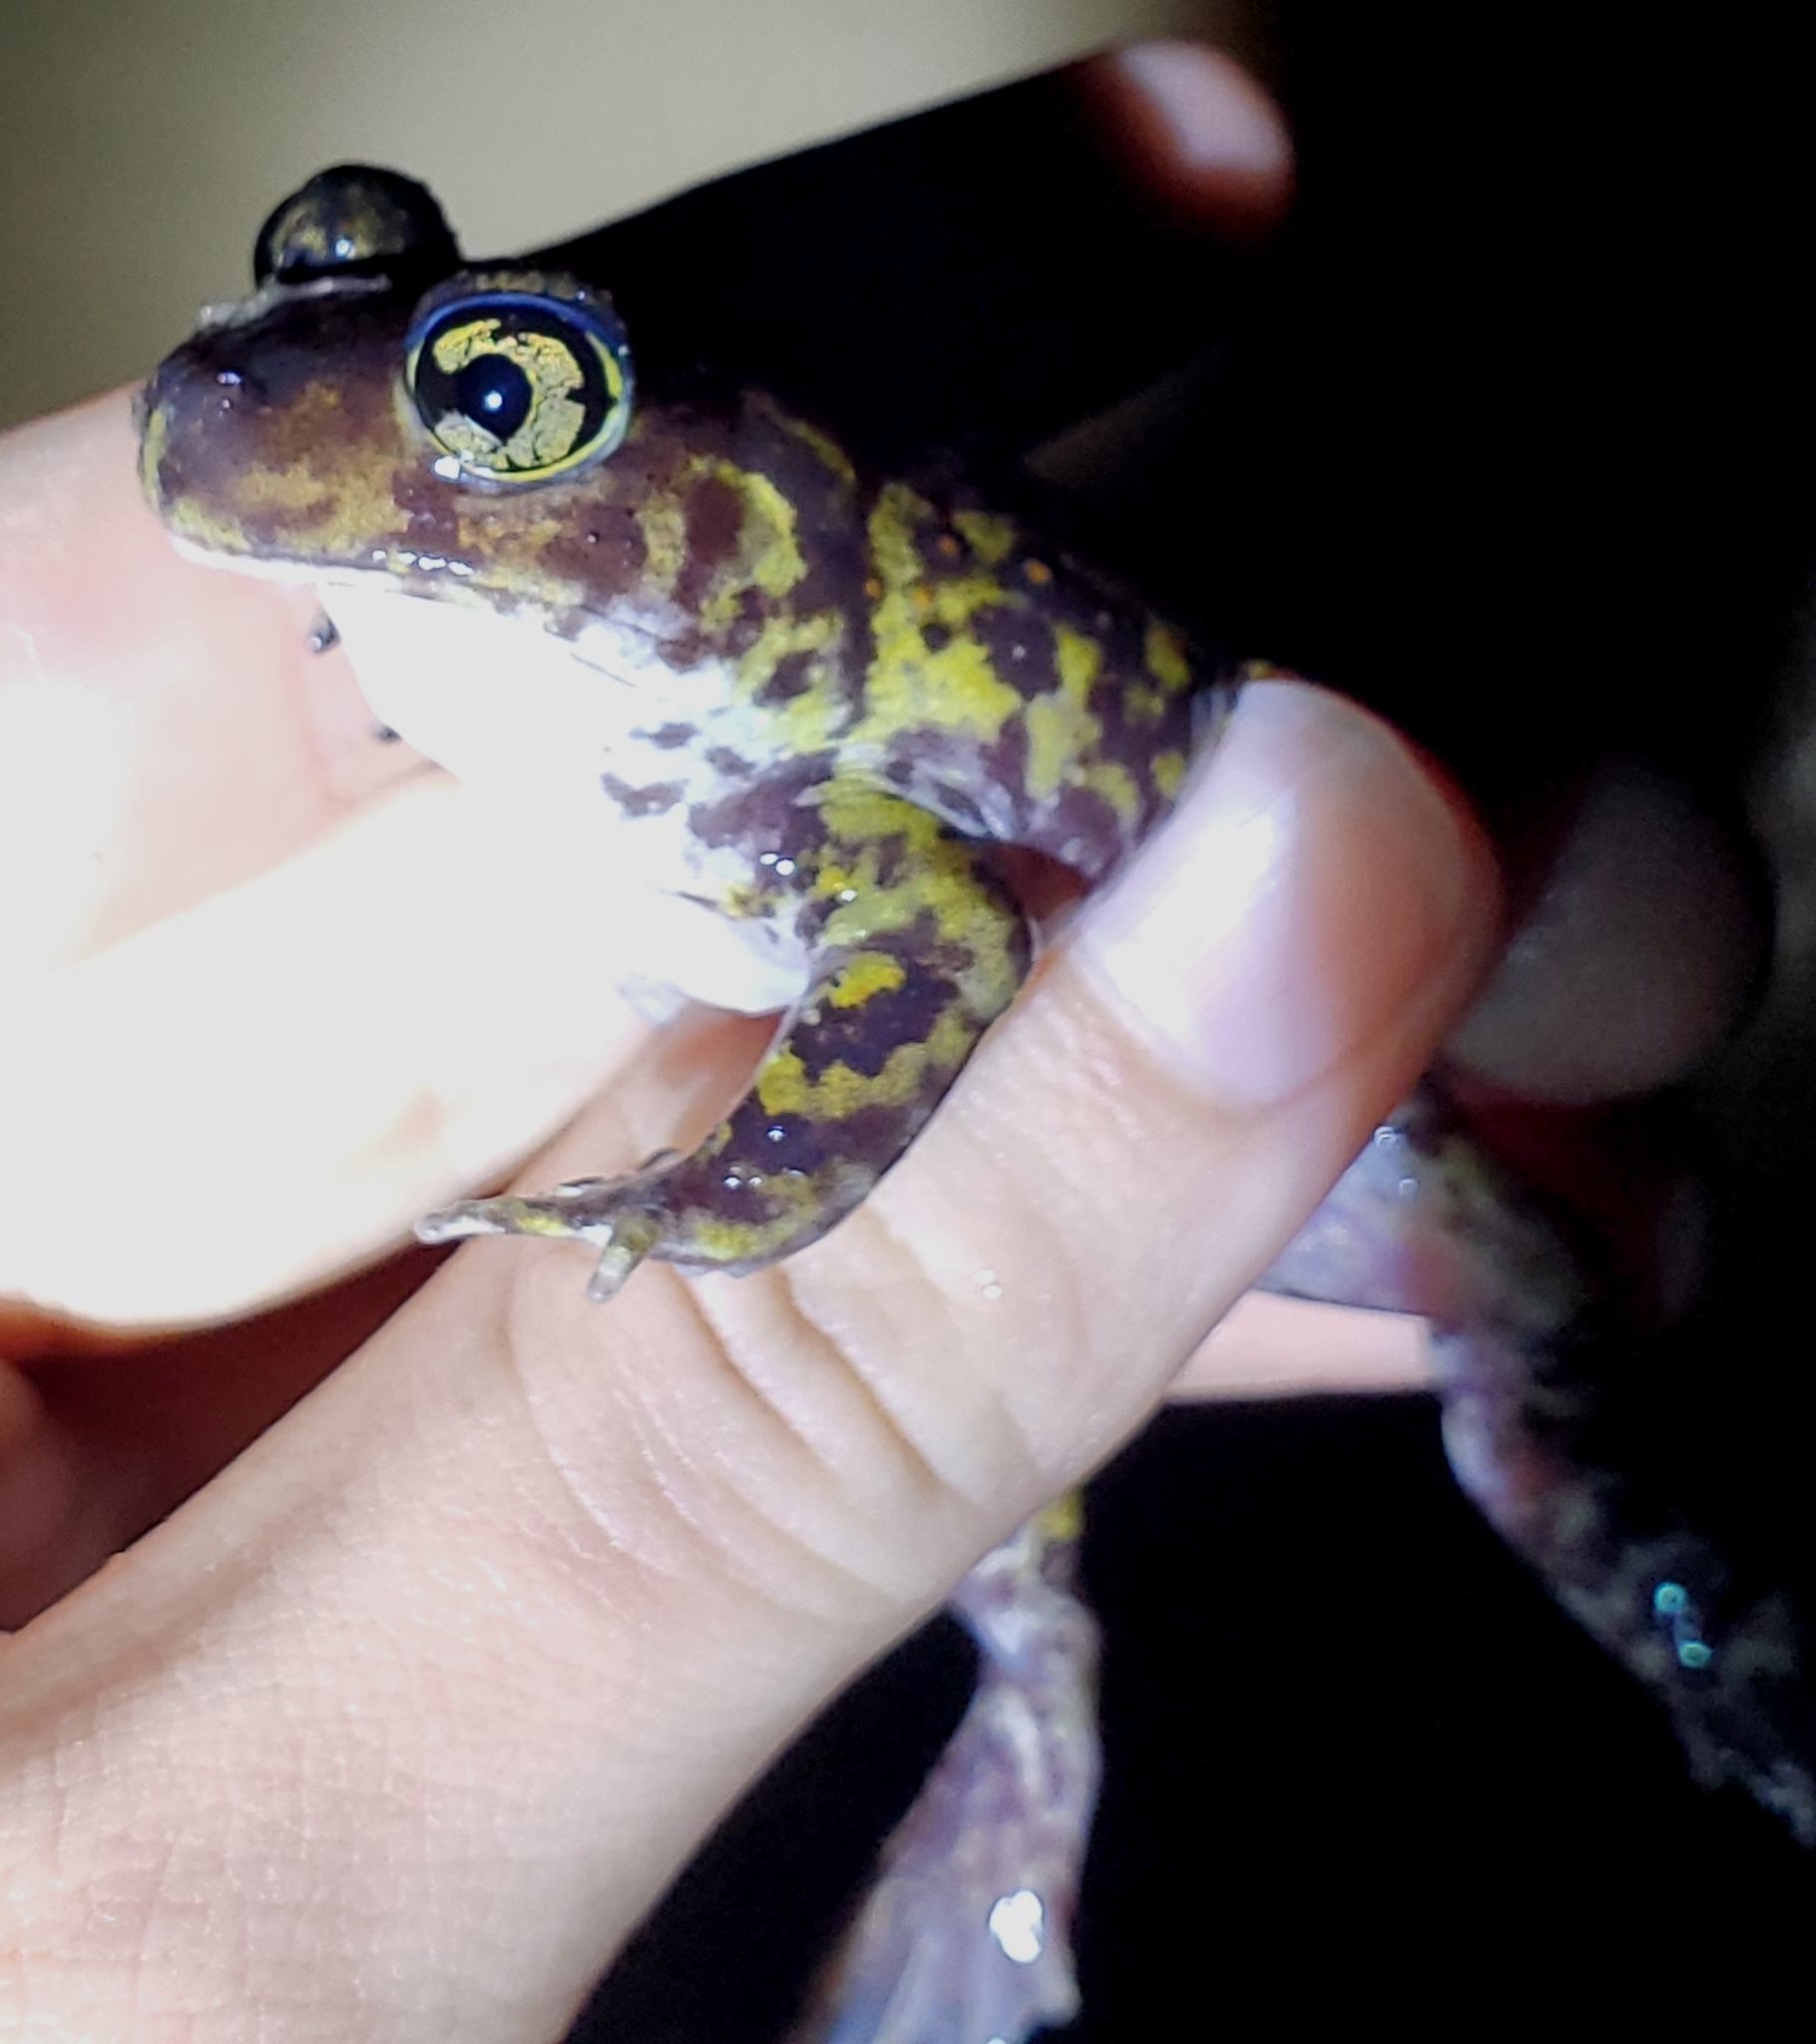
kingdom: Animalia
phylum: Chordata
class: Amphibia
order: Anura
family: Scaphiopodidae
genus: Scaphiopus
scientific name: Scaphiopus holbrookii
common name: Eastern spadefoot toad
